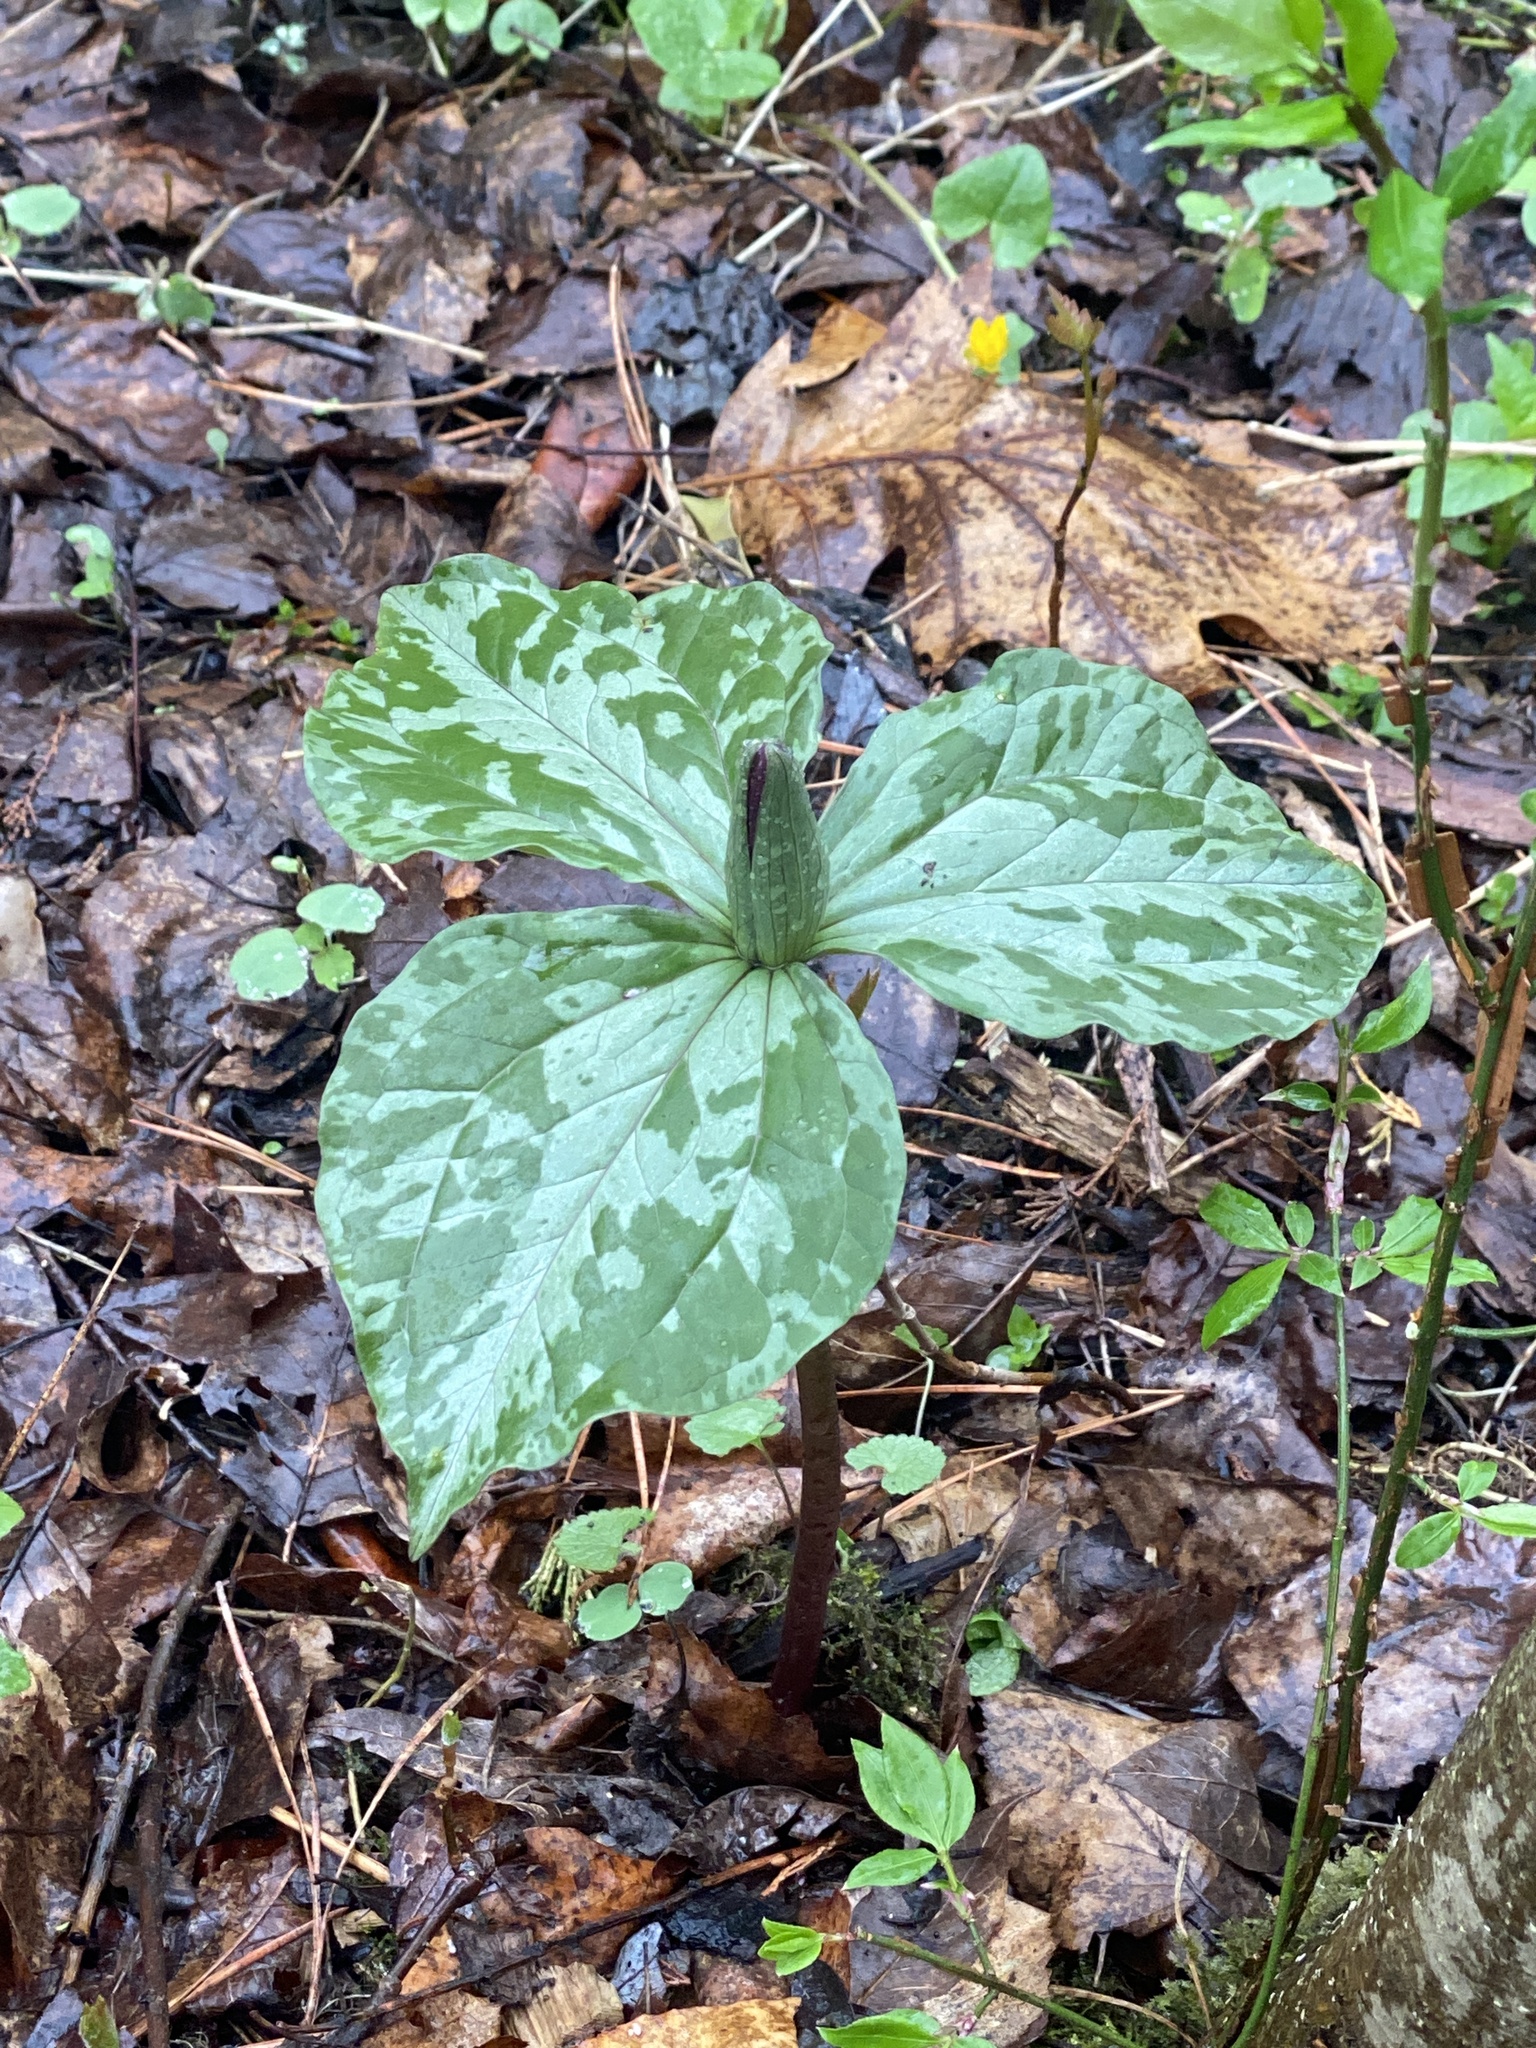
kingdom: Plantae
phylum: Tracheophyta
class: Liliopsida
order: Liliales
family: Melanthiaceae
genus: Trillium
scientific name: Trillium cuneatum
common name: Cuneate trillium
